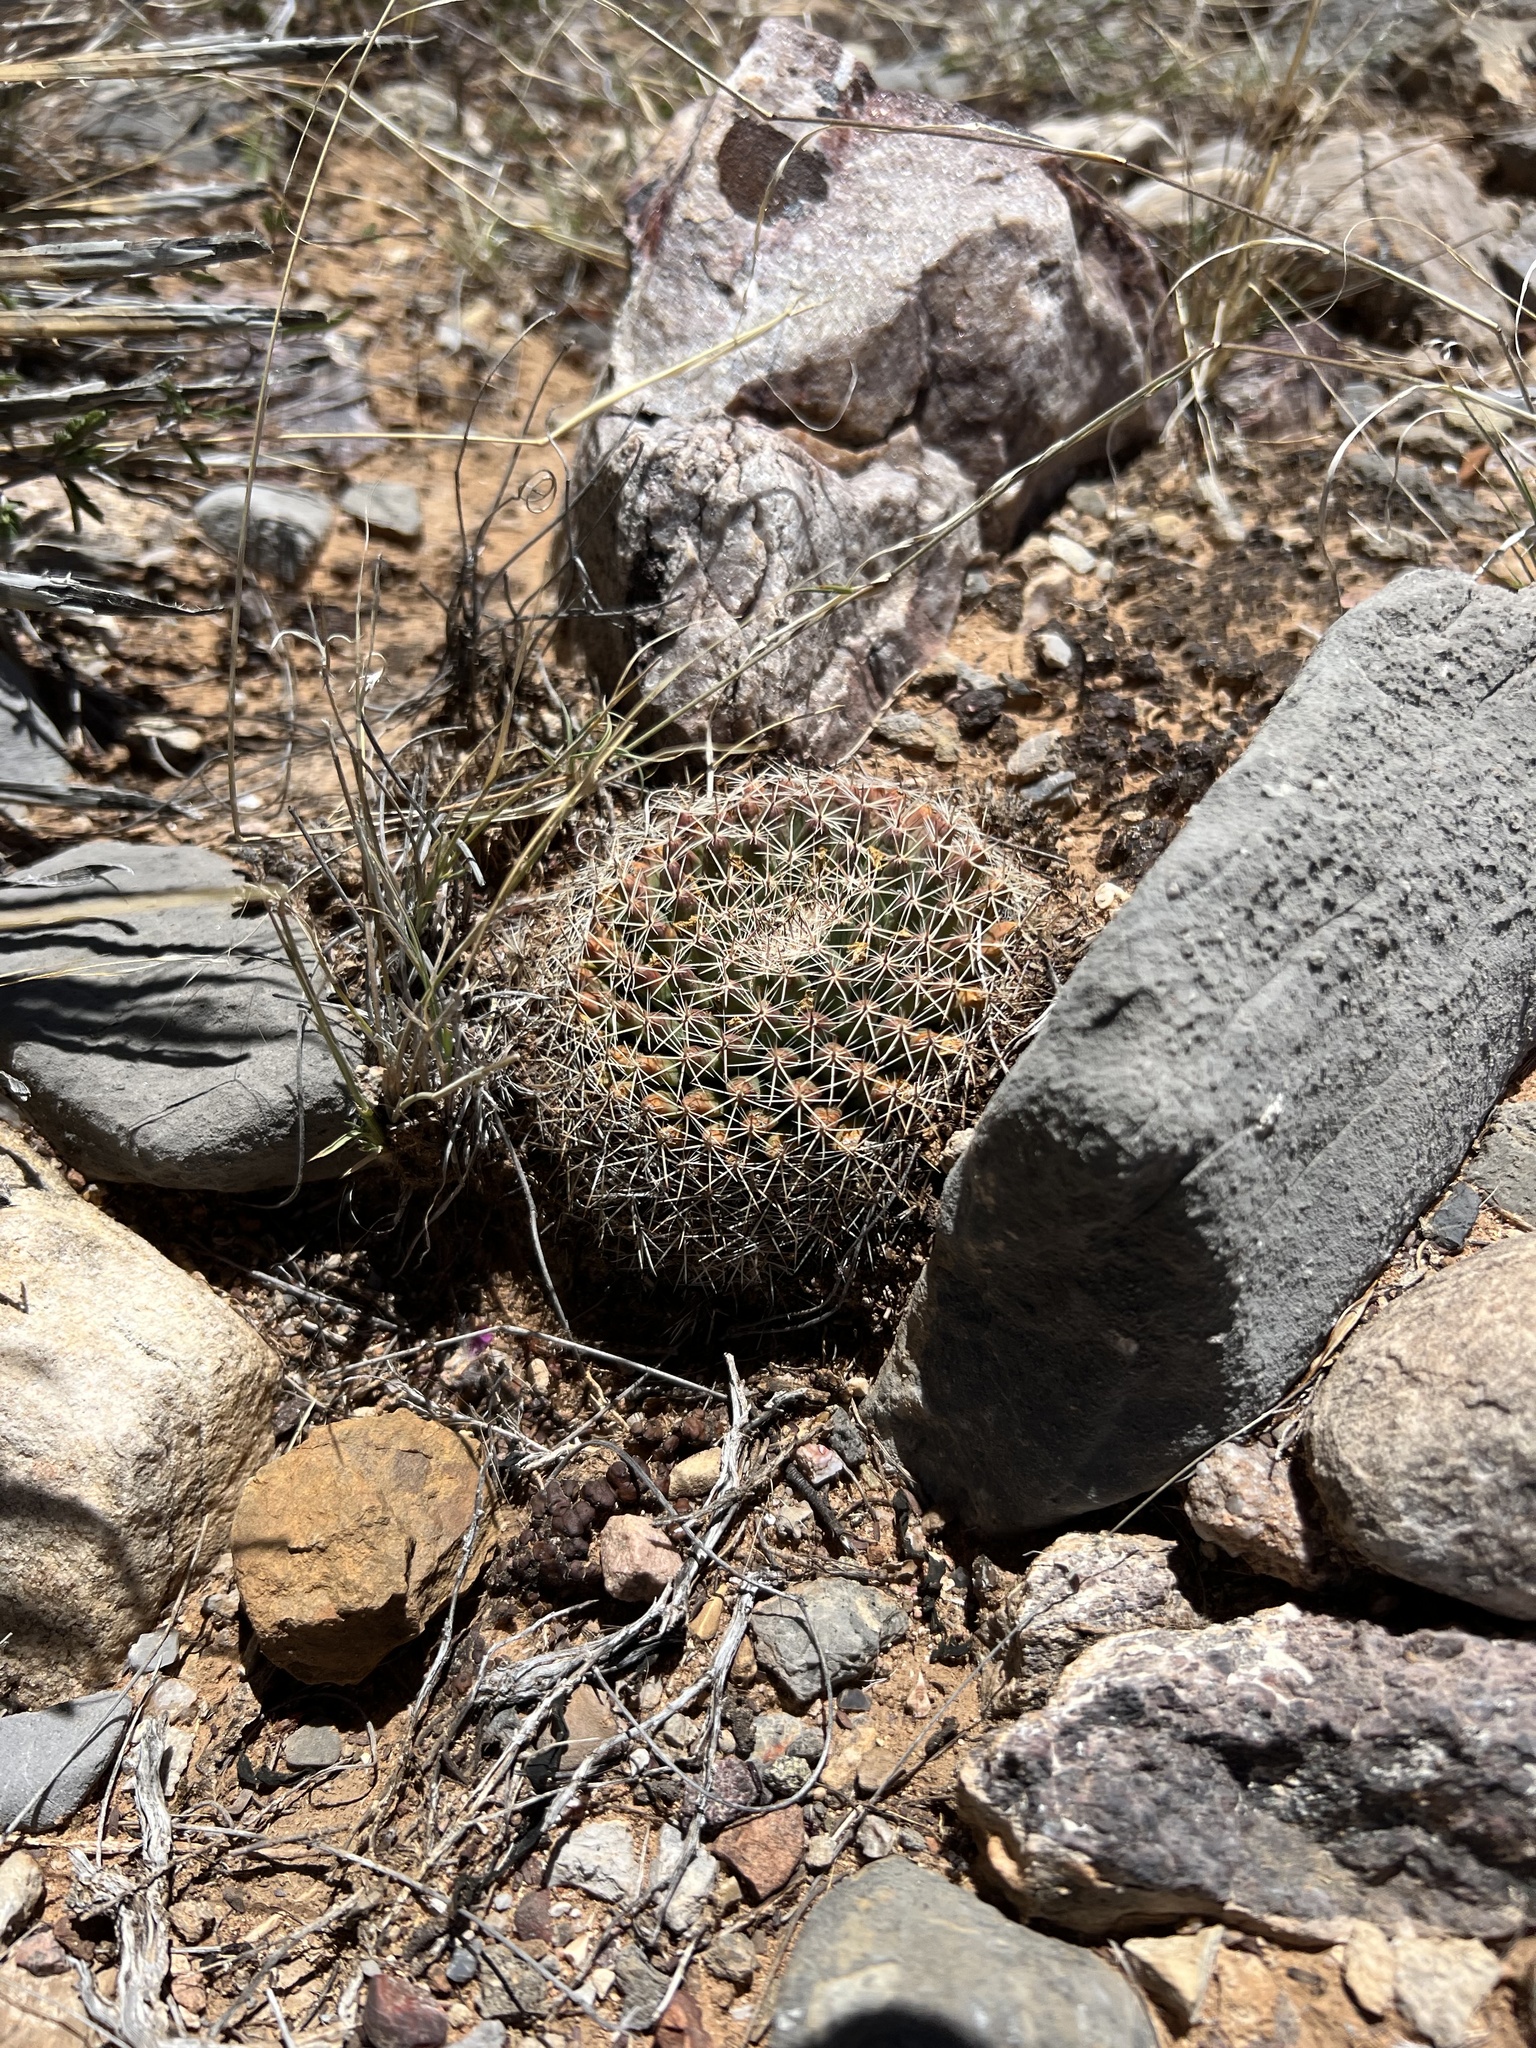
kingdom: Plantae
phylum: Tracheophyta
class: Magnoliopsida
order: Caryophyllales
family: Cactaceae
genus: Mammillaria
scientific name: Mammillaria heyderi
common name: Little nipple cactus
